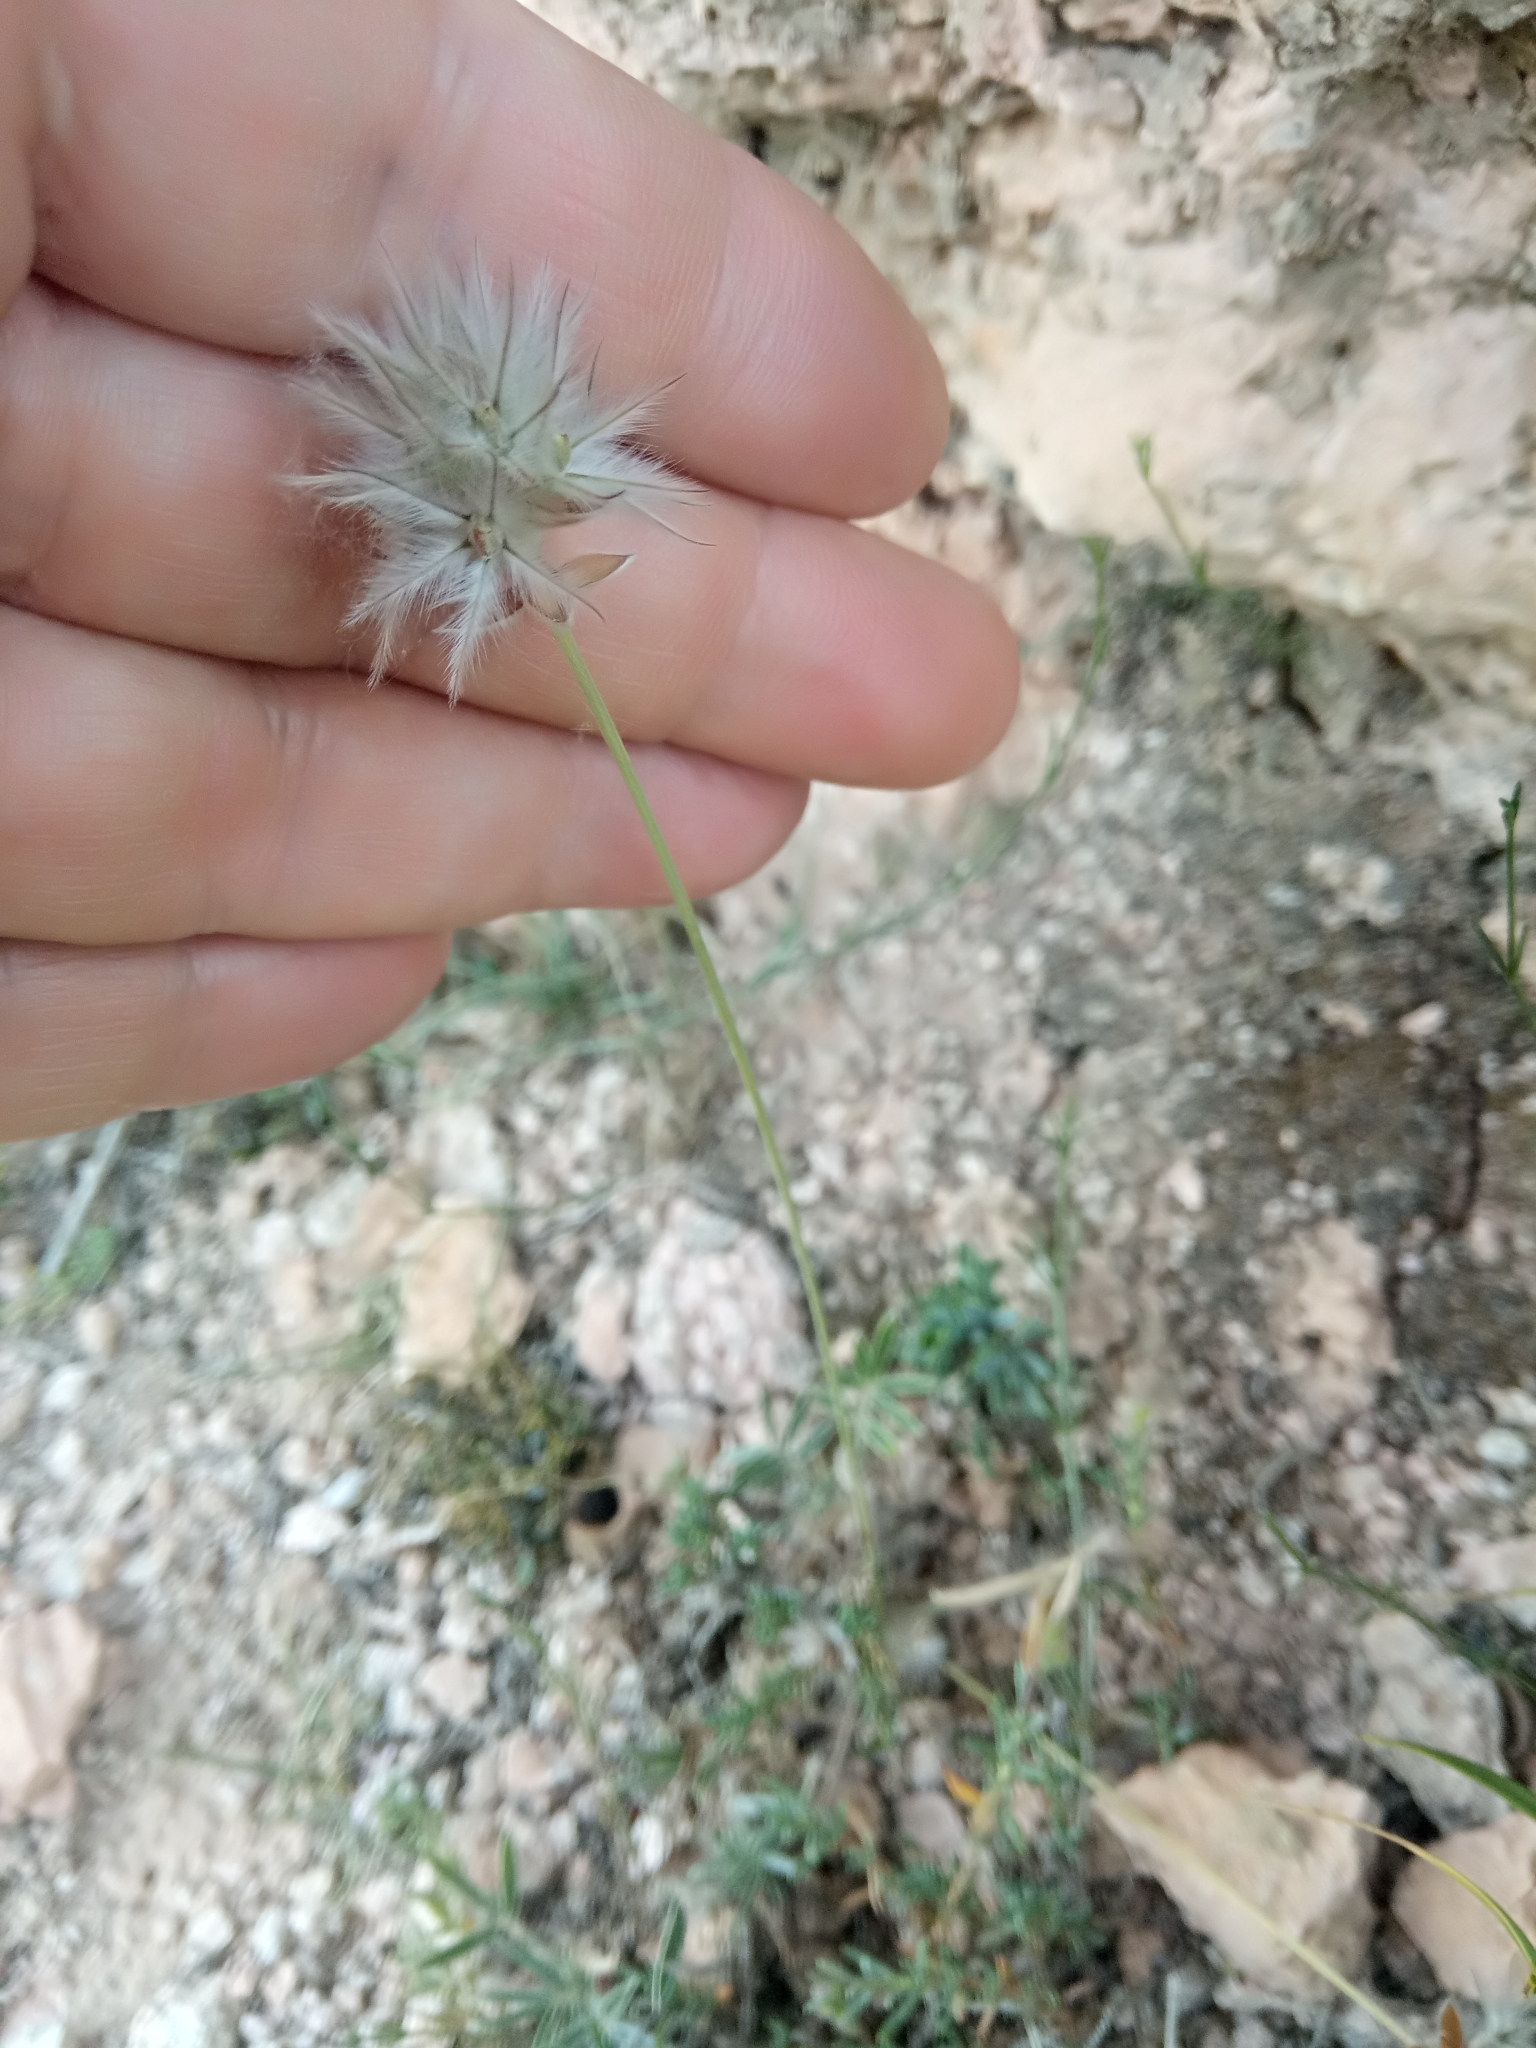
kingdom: Plantae
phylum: Tracheophyta
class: Magnoliopsida
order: Fabales
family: Fabaceae
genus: Ebenus
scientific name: Ebenus pinnata
